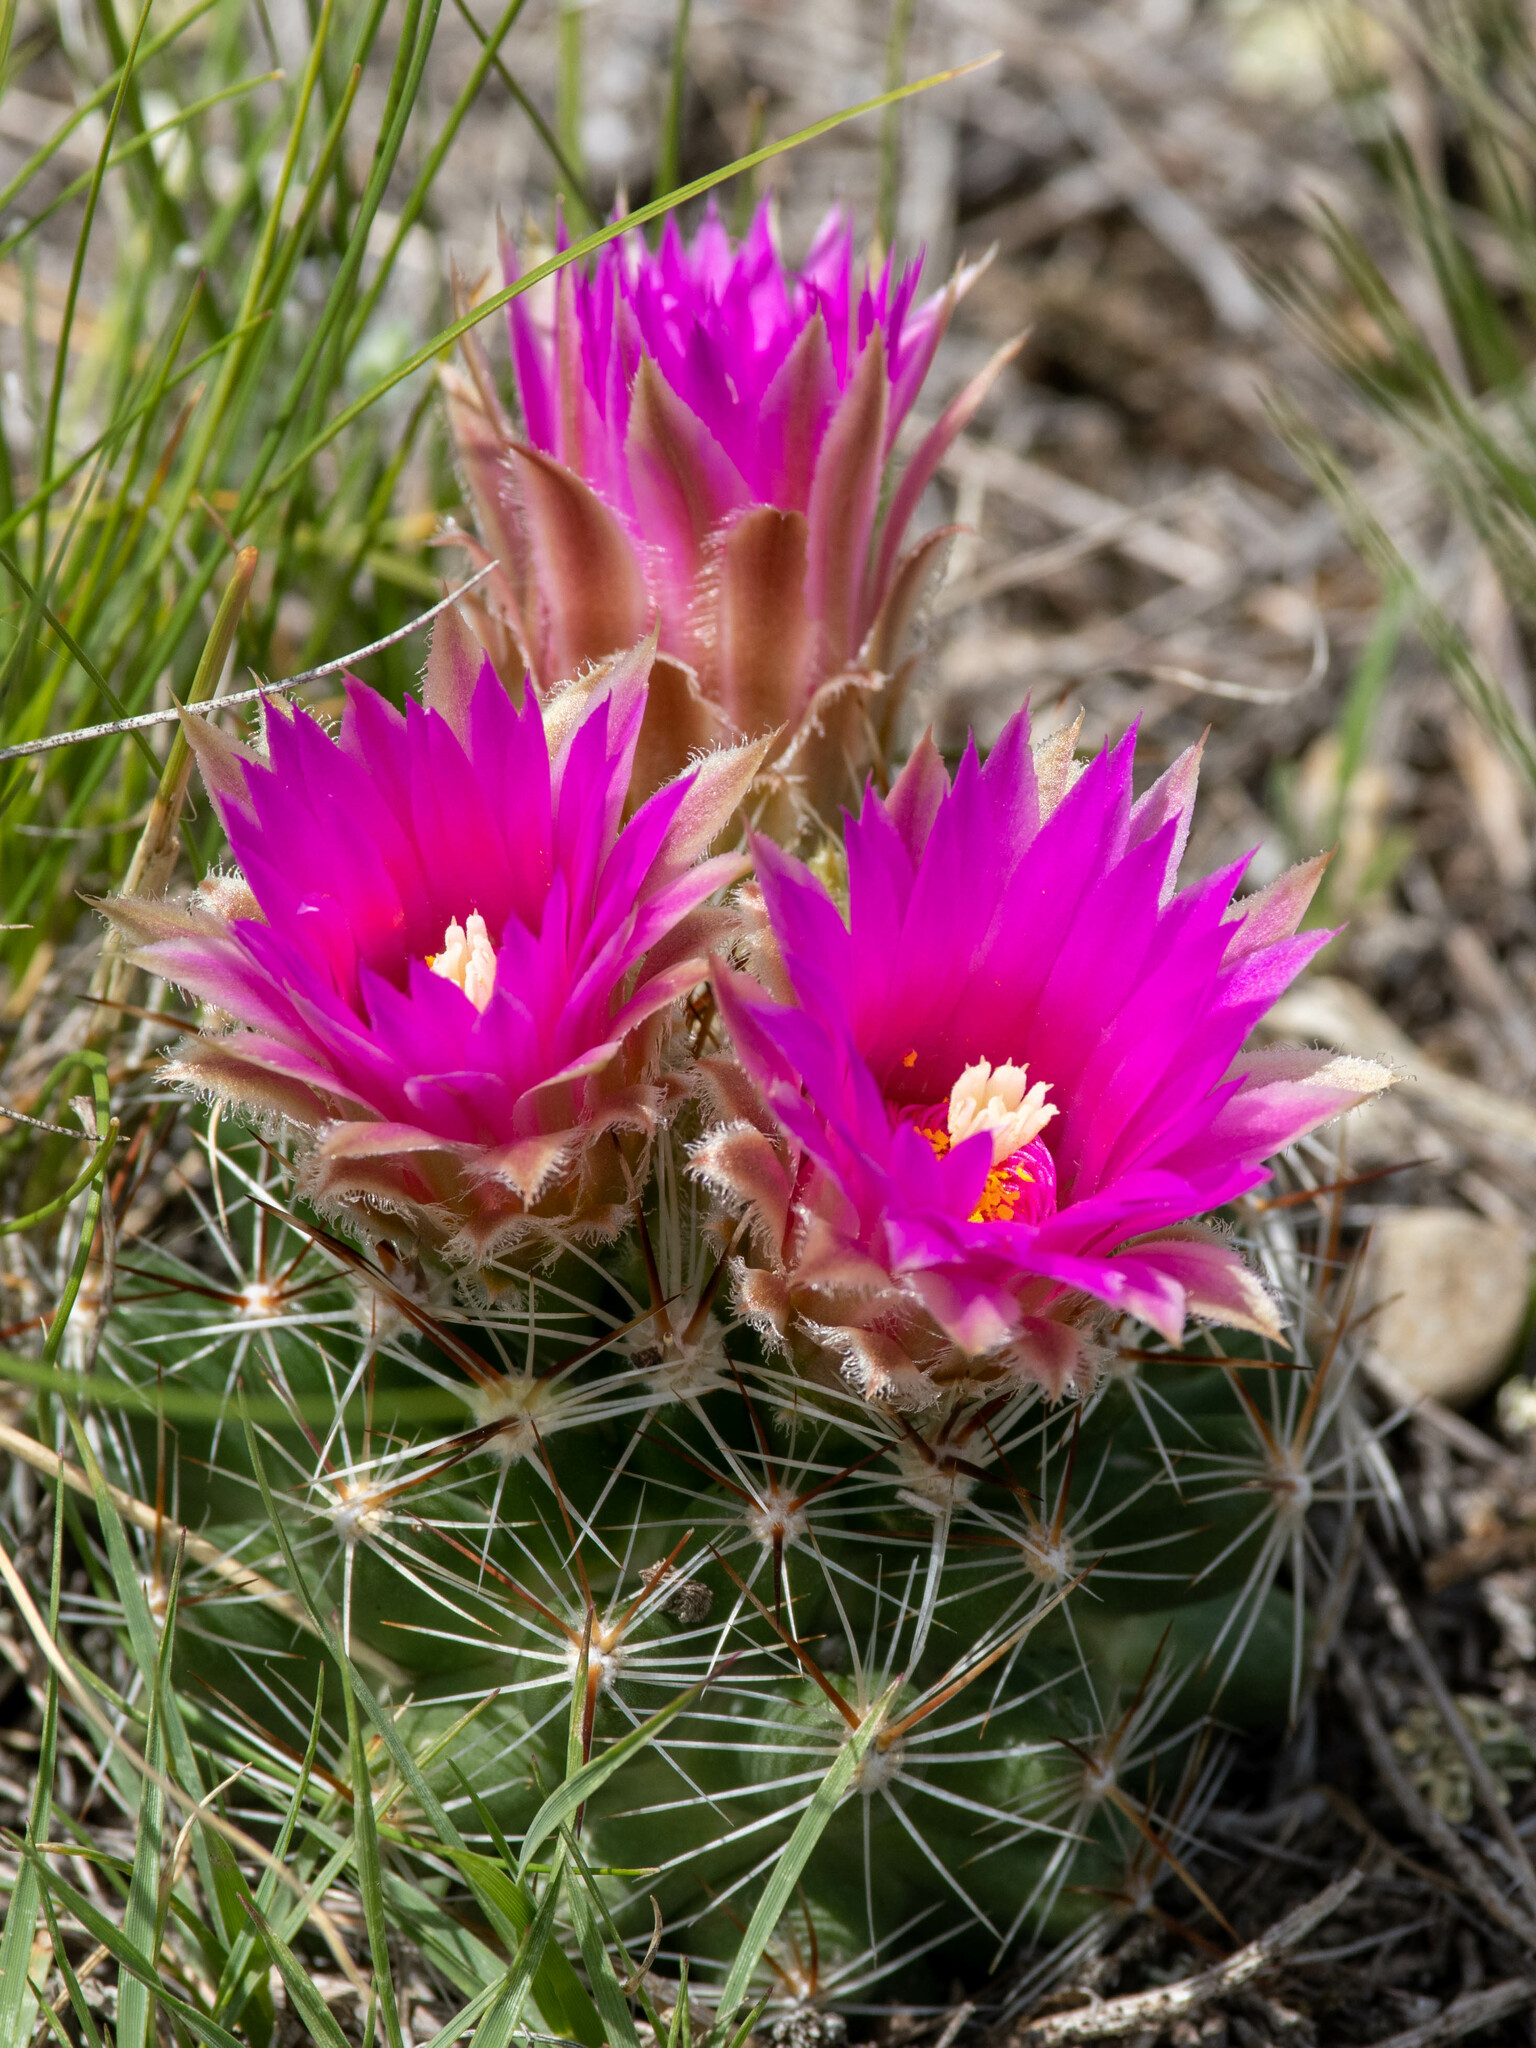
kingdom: Plantae
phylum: Tracheophyta
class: Magnoliopsida
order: Caryophyllales
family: Cactaceae
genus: Pelecyphora
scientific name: Pelecyphora vivipara
